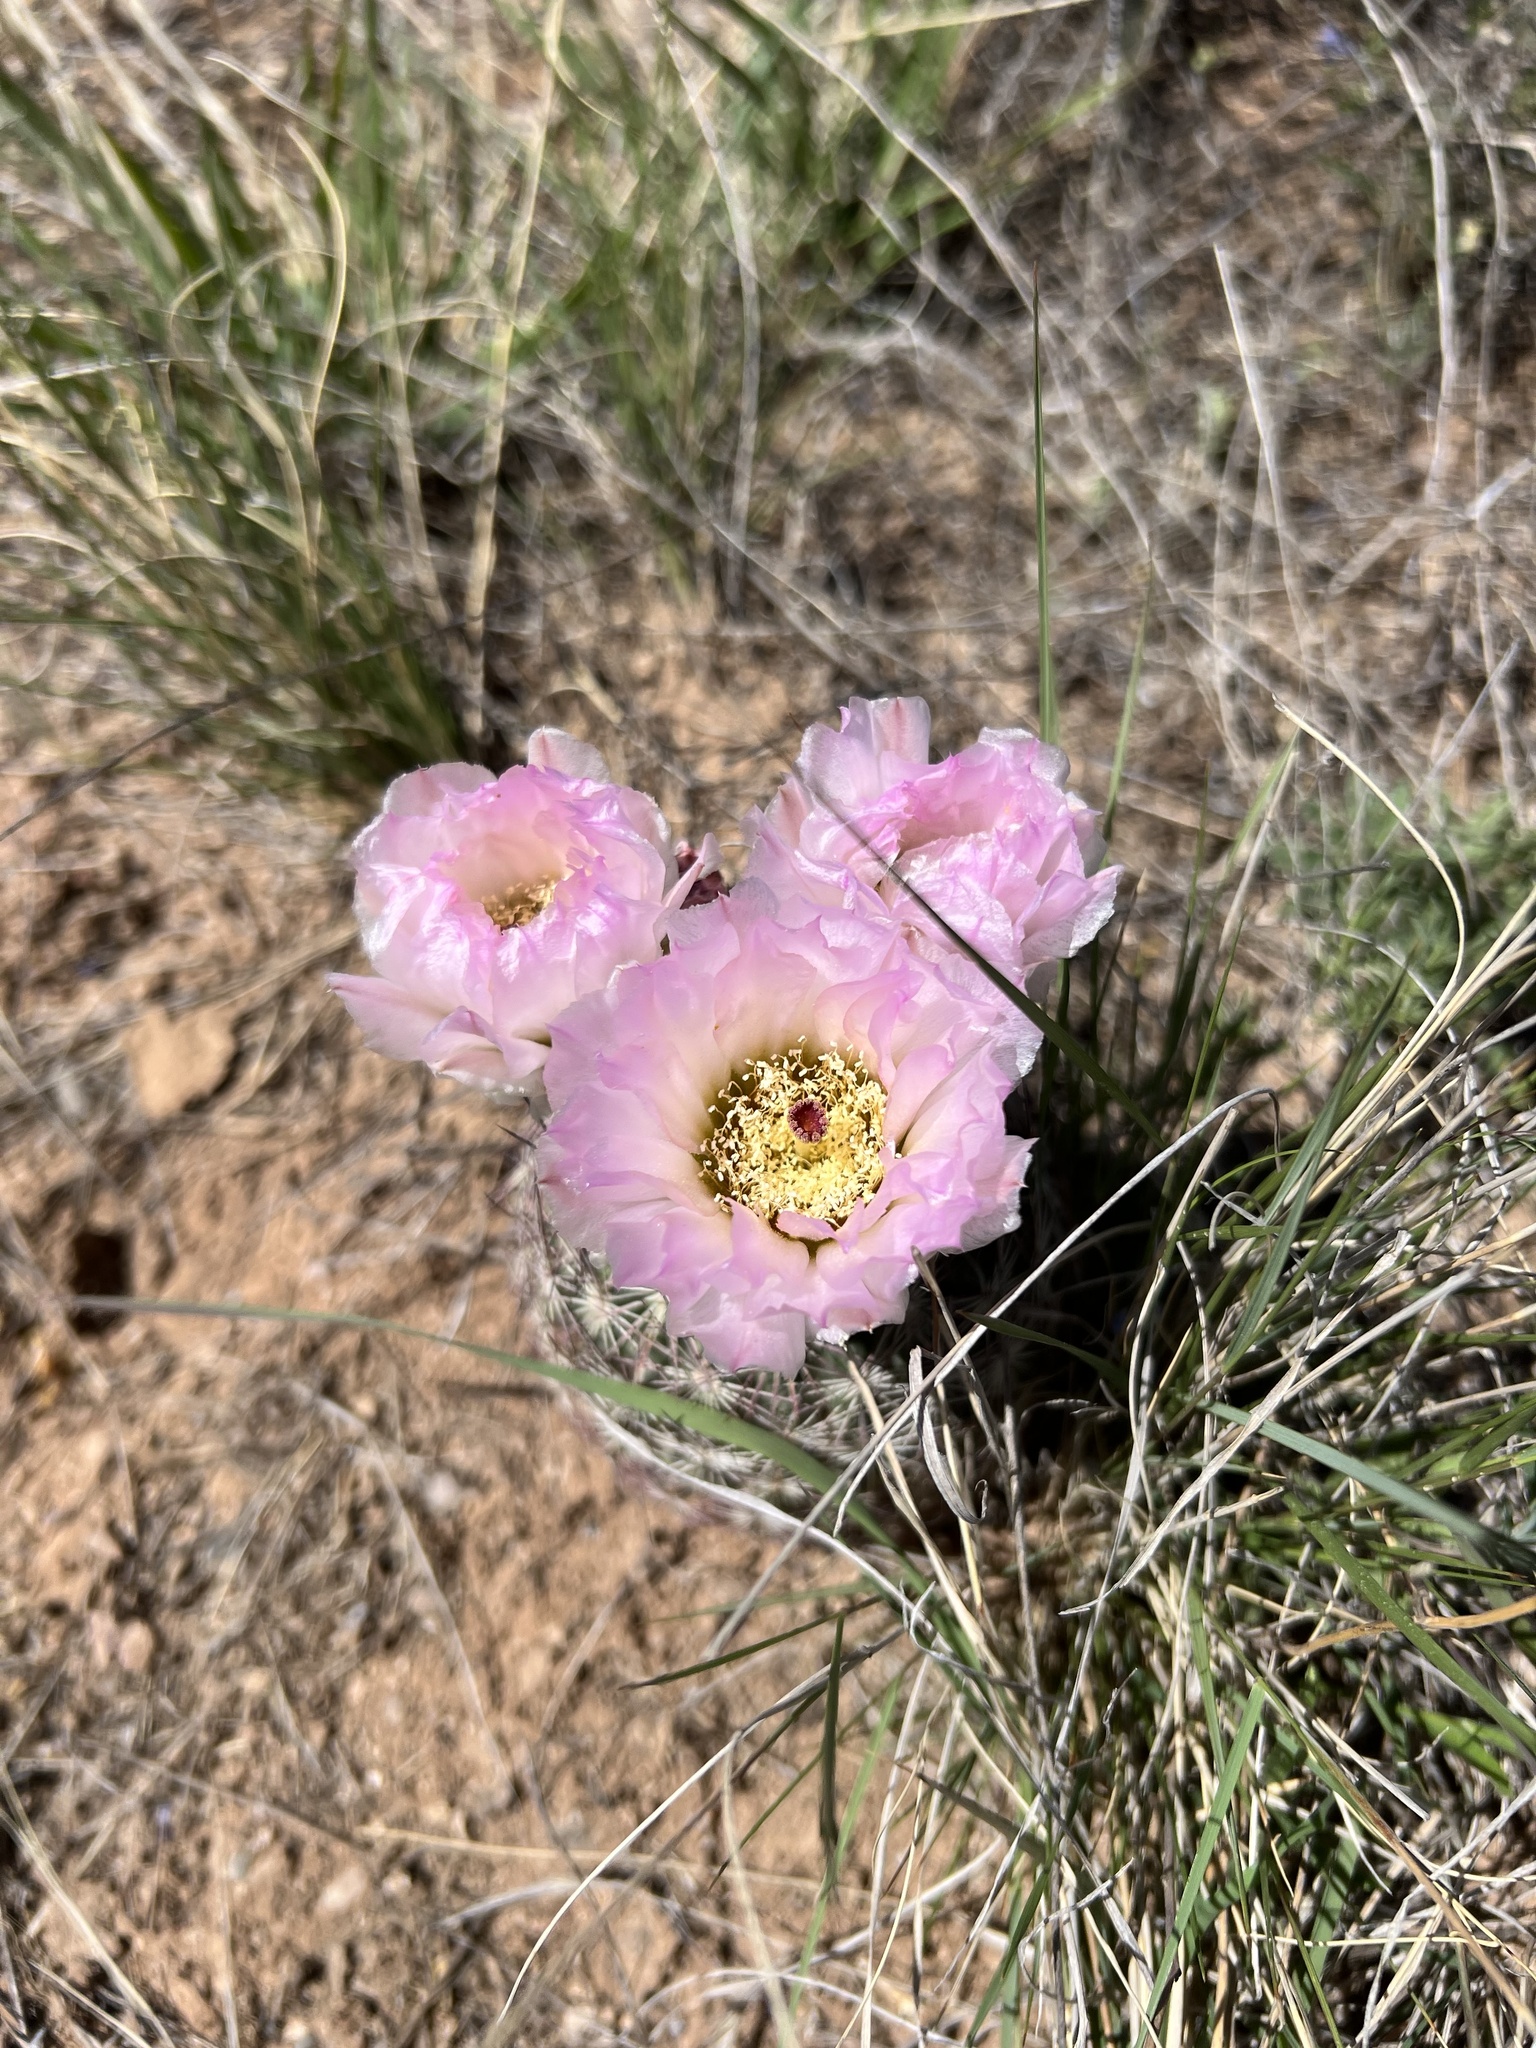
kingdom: Plantae
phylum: Tracheophyta
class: Magnoliopsida
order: Caryophyllales
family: Cactaceae
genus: Sclerocactus
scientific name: Sclerocactus johnsonii
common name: Eight-spine fishhook cactus
